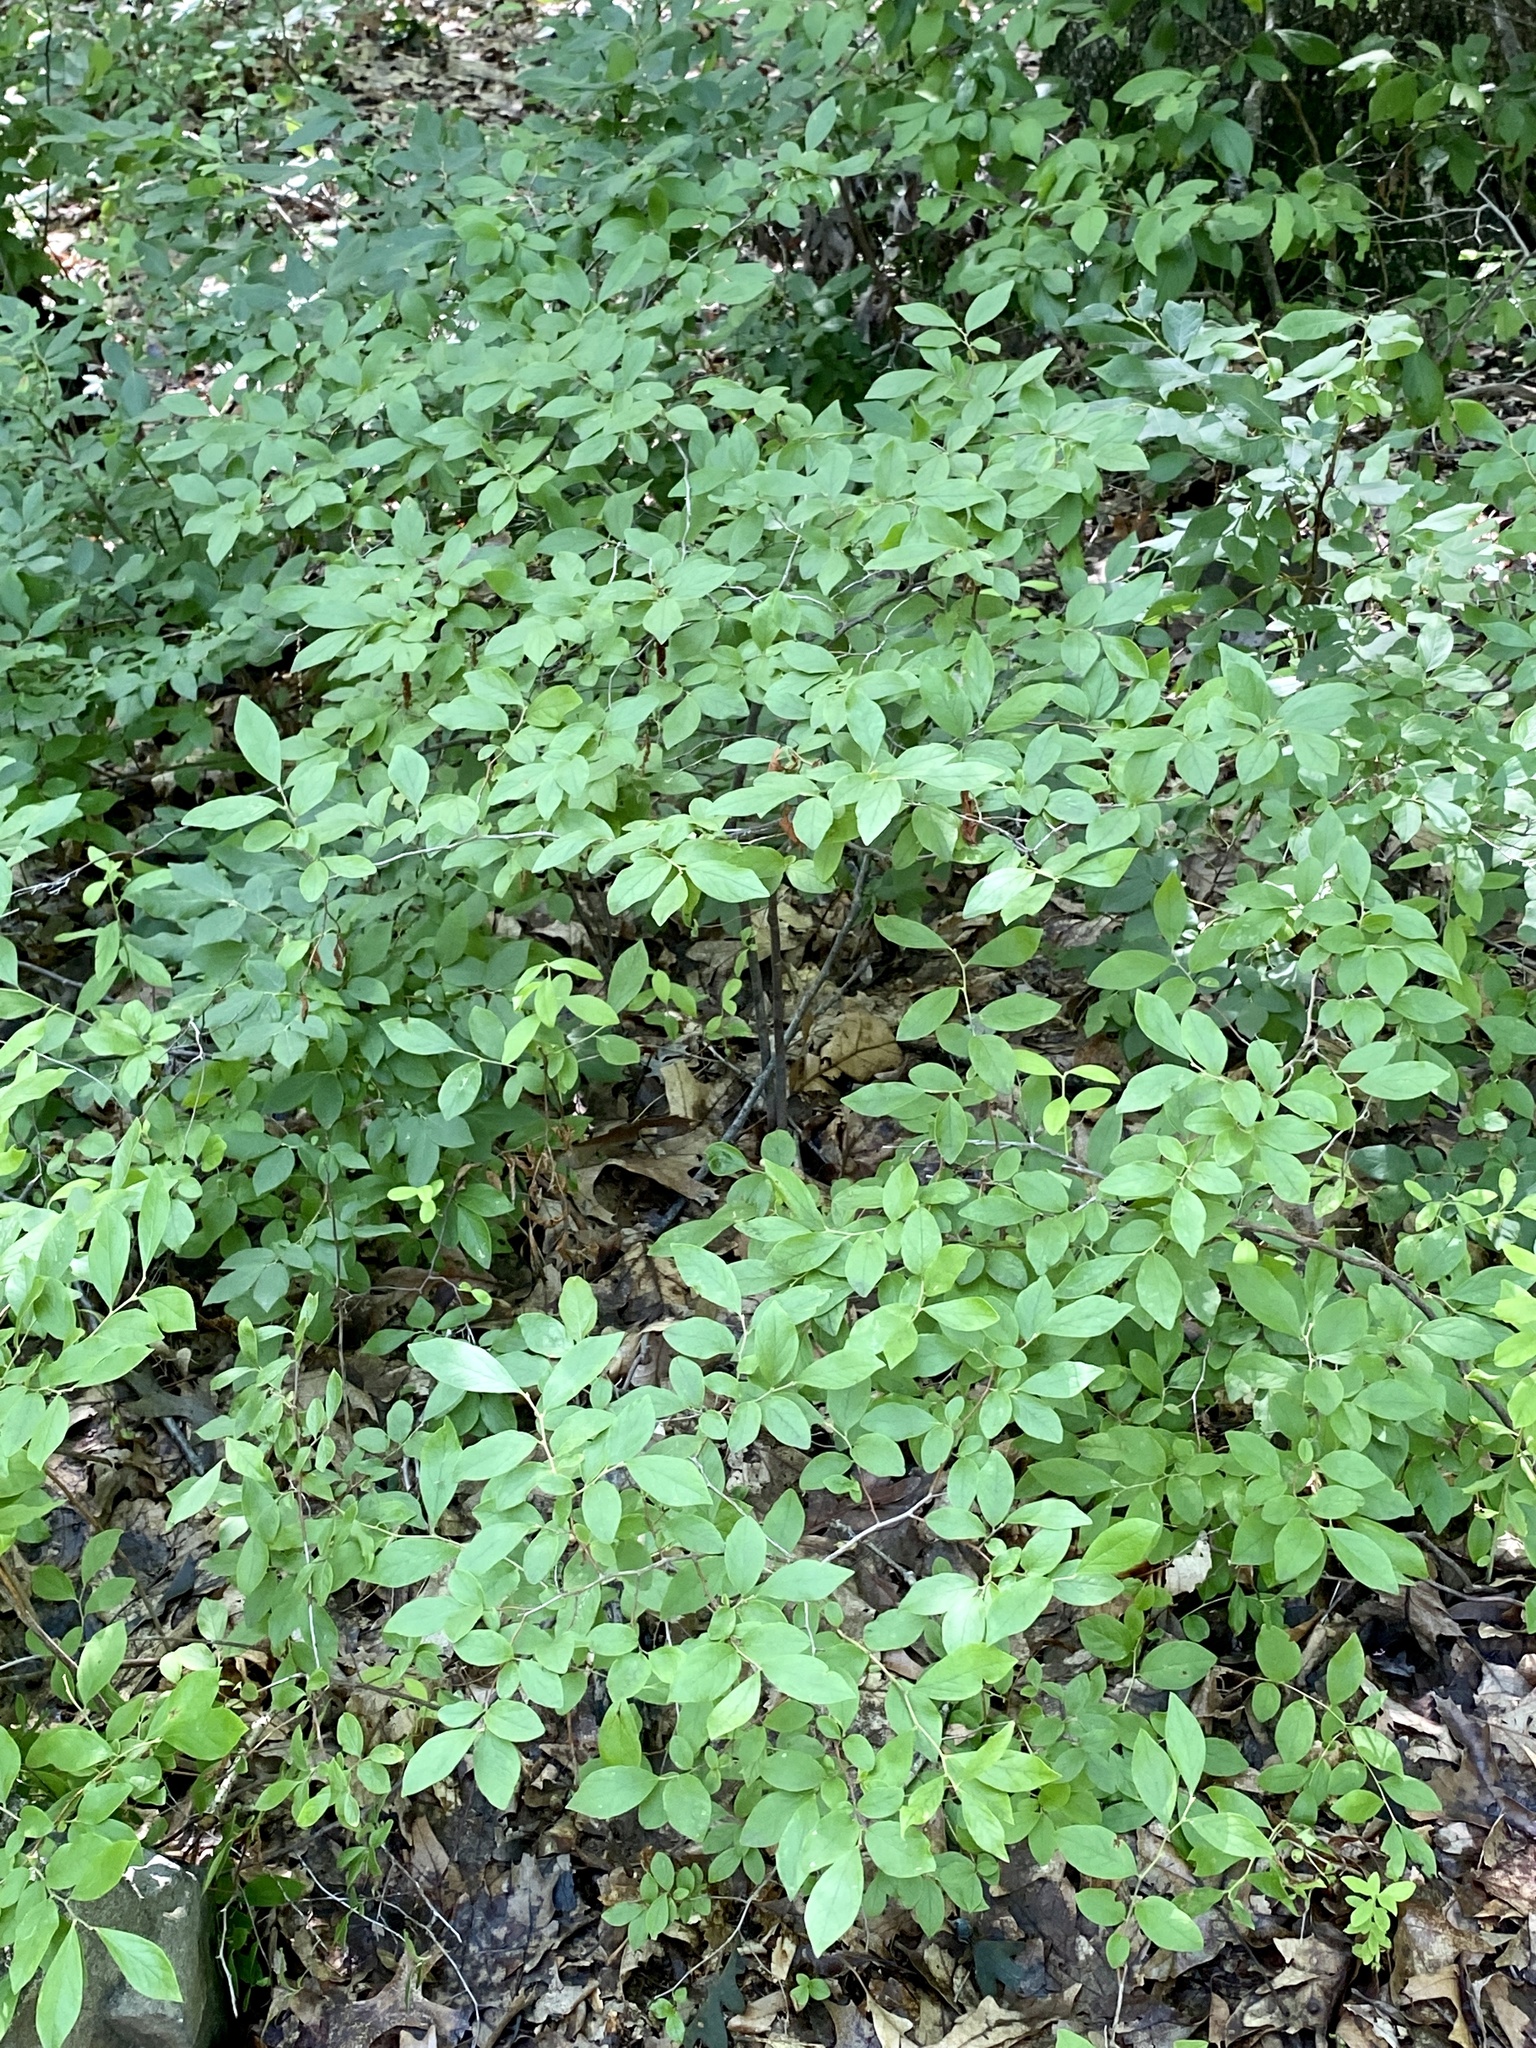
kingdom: Plantae
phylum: Tracheophyta
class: Magnoliopsida
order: Ericales
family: Ericaceae
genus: Gaylussacia
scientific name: Gaylussacia baccata
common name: Black huckleberry
